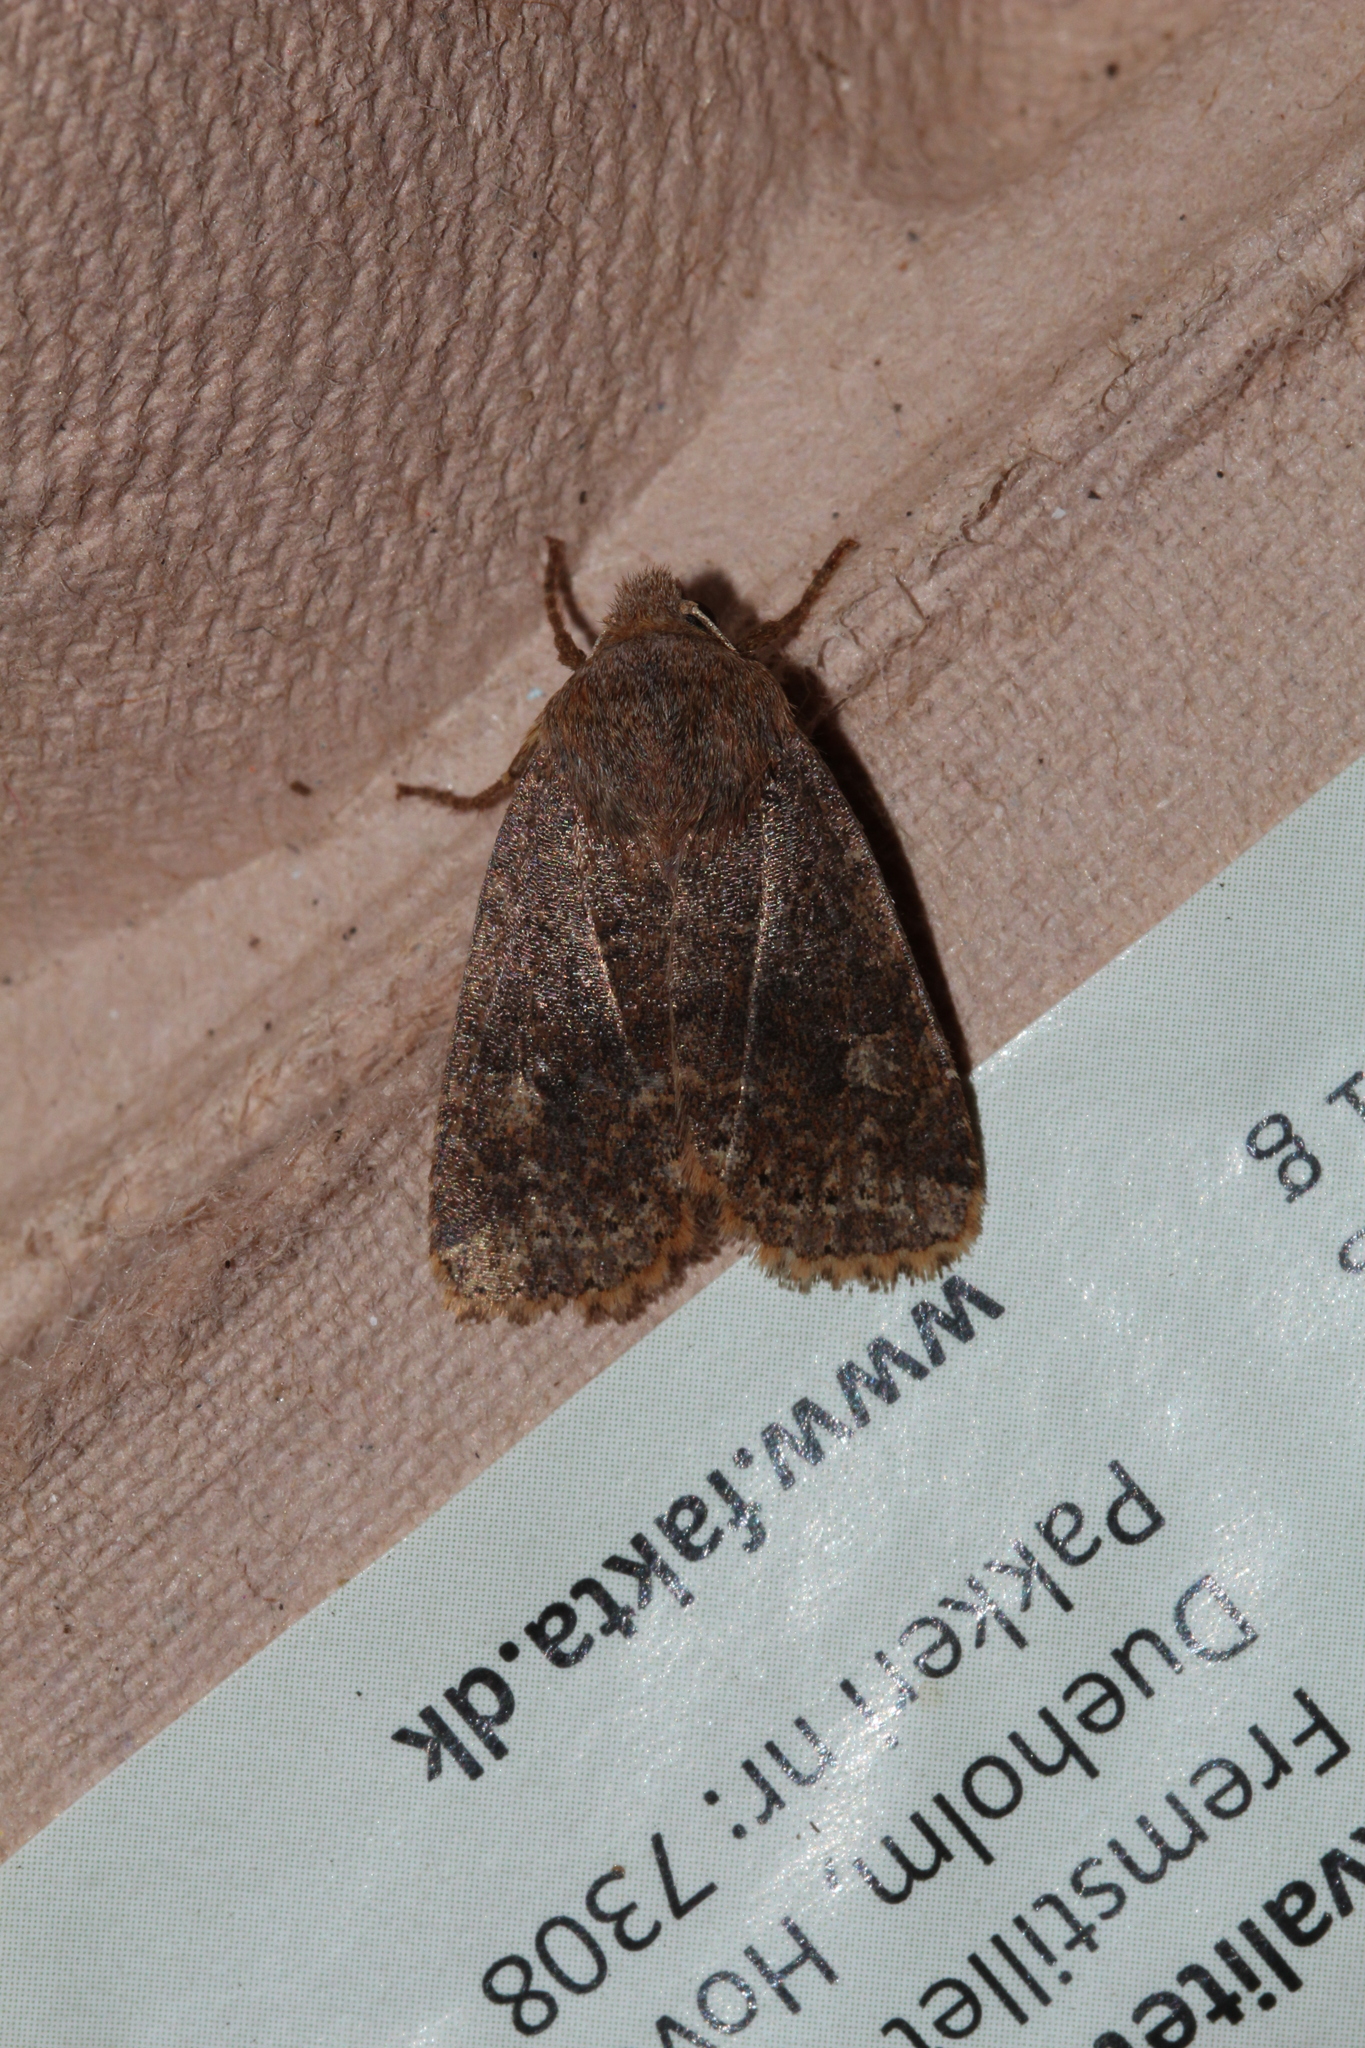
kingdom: Animalia
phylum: Arthropoda
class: Insecta
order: Lepidoptera
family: Noctuidae
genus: Conistra
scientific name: Conistra vaccinii
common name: Chestnut
